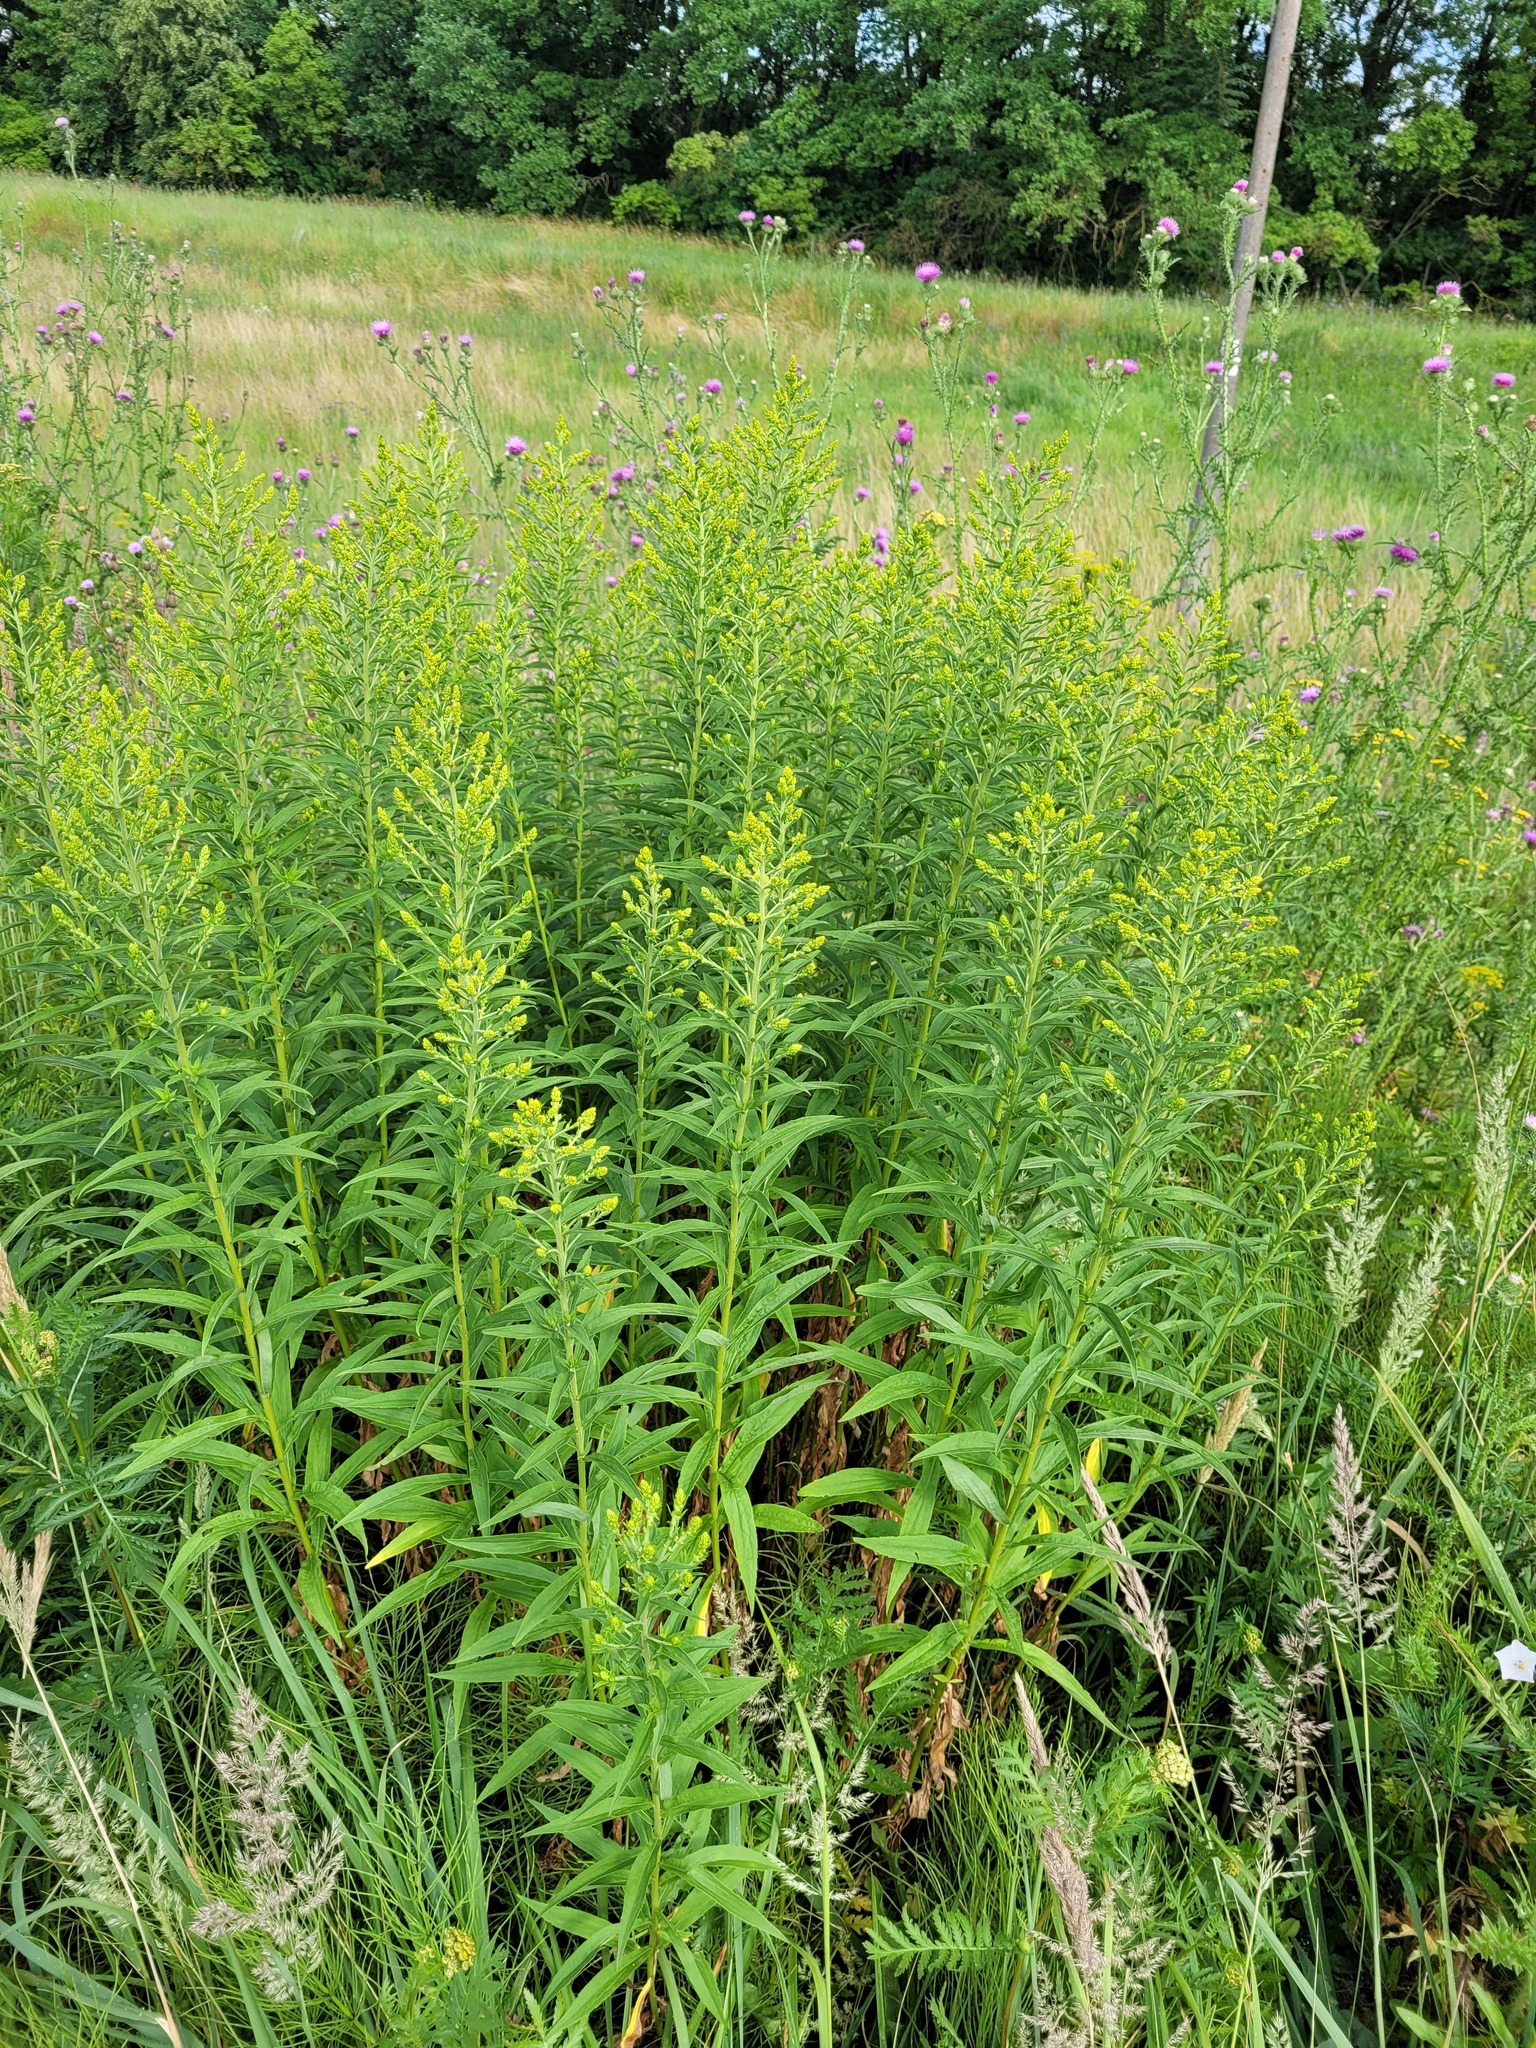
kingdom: Plantae
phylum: Tracheophyta
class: Magnoliopsida
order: Asterales
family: Asteraceae
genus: Solidago
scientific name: Solidago canadensis
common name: Canada goldenrod
